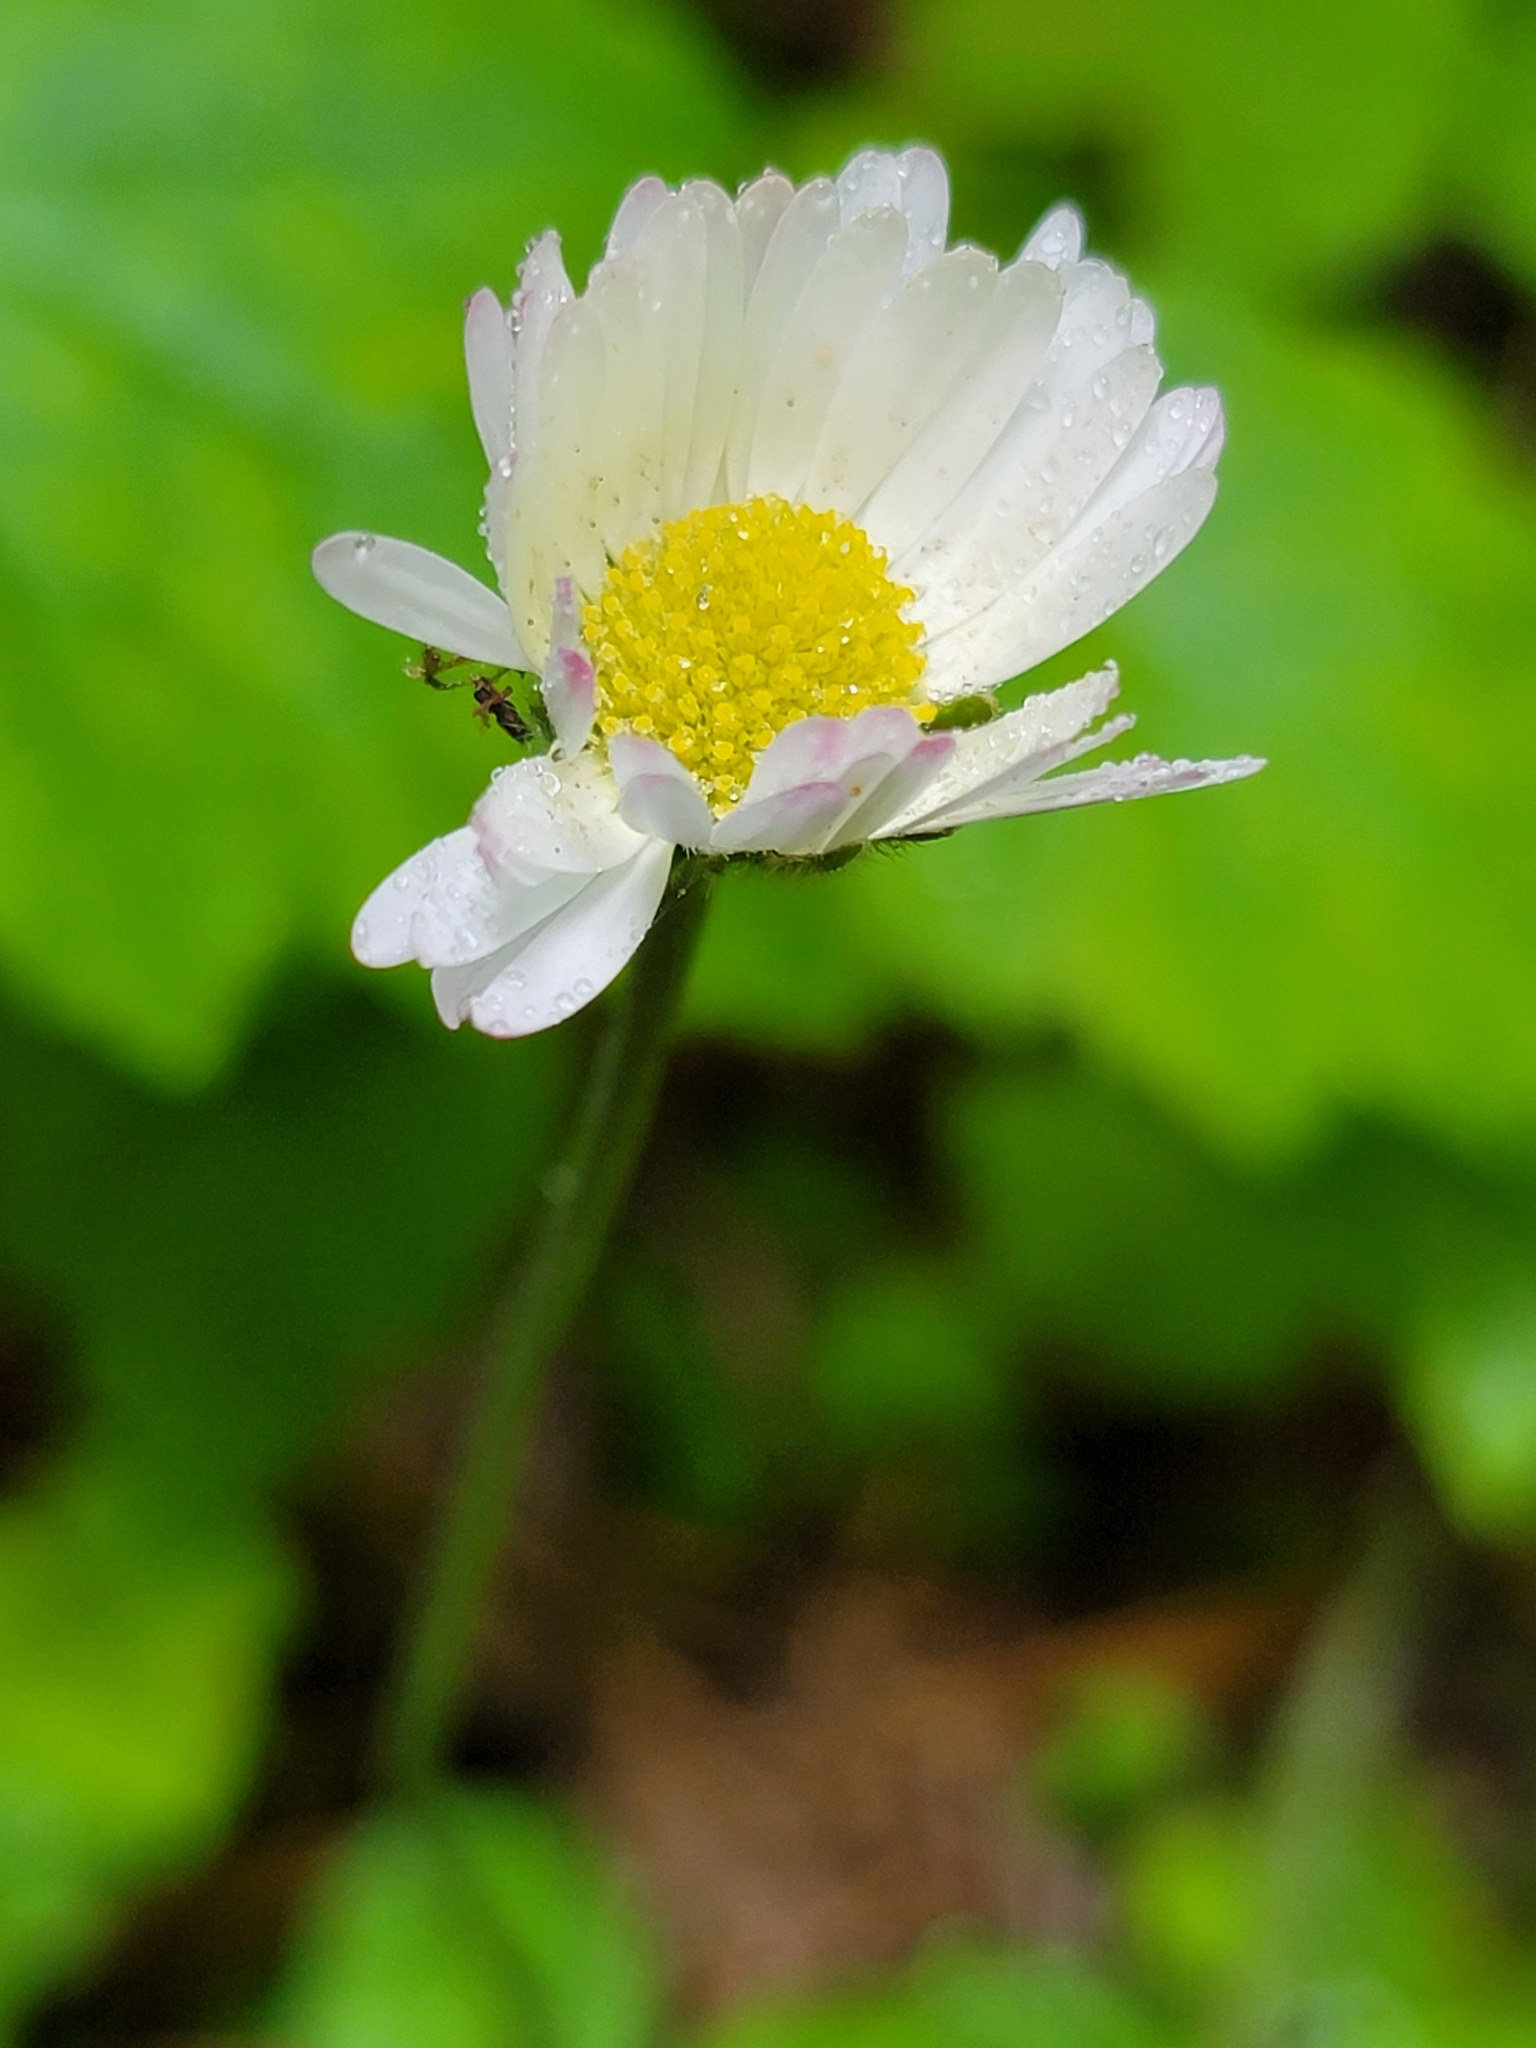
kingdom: Plantae
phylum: Tracheophyta
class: Magnoliopsida
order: Asterales
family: Asteraceae
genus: Bellis
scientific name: Bellis perennis
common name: Lawndaisy
